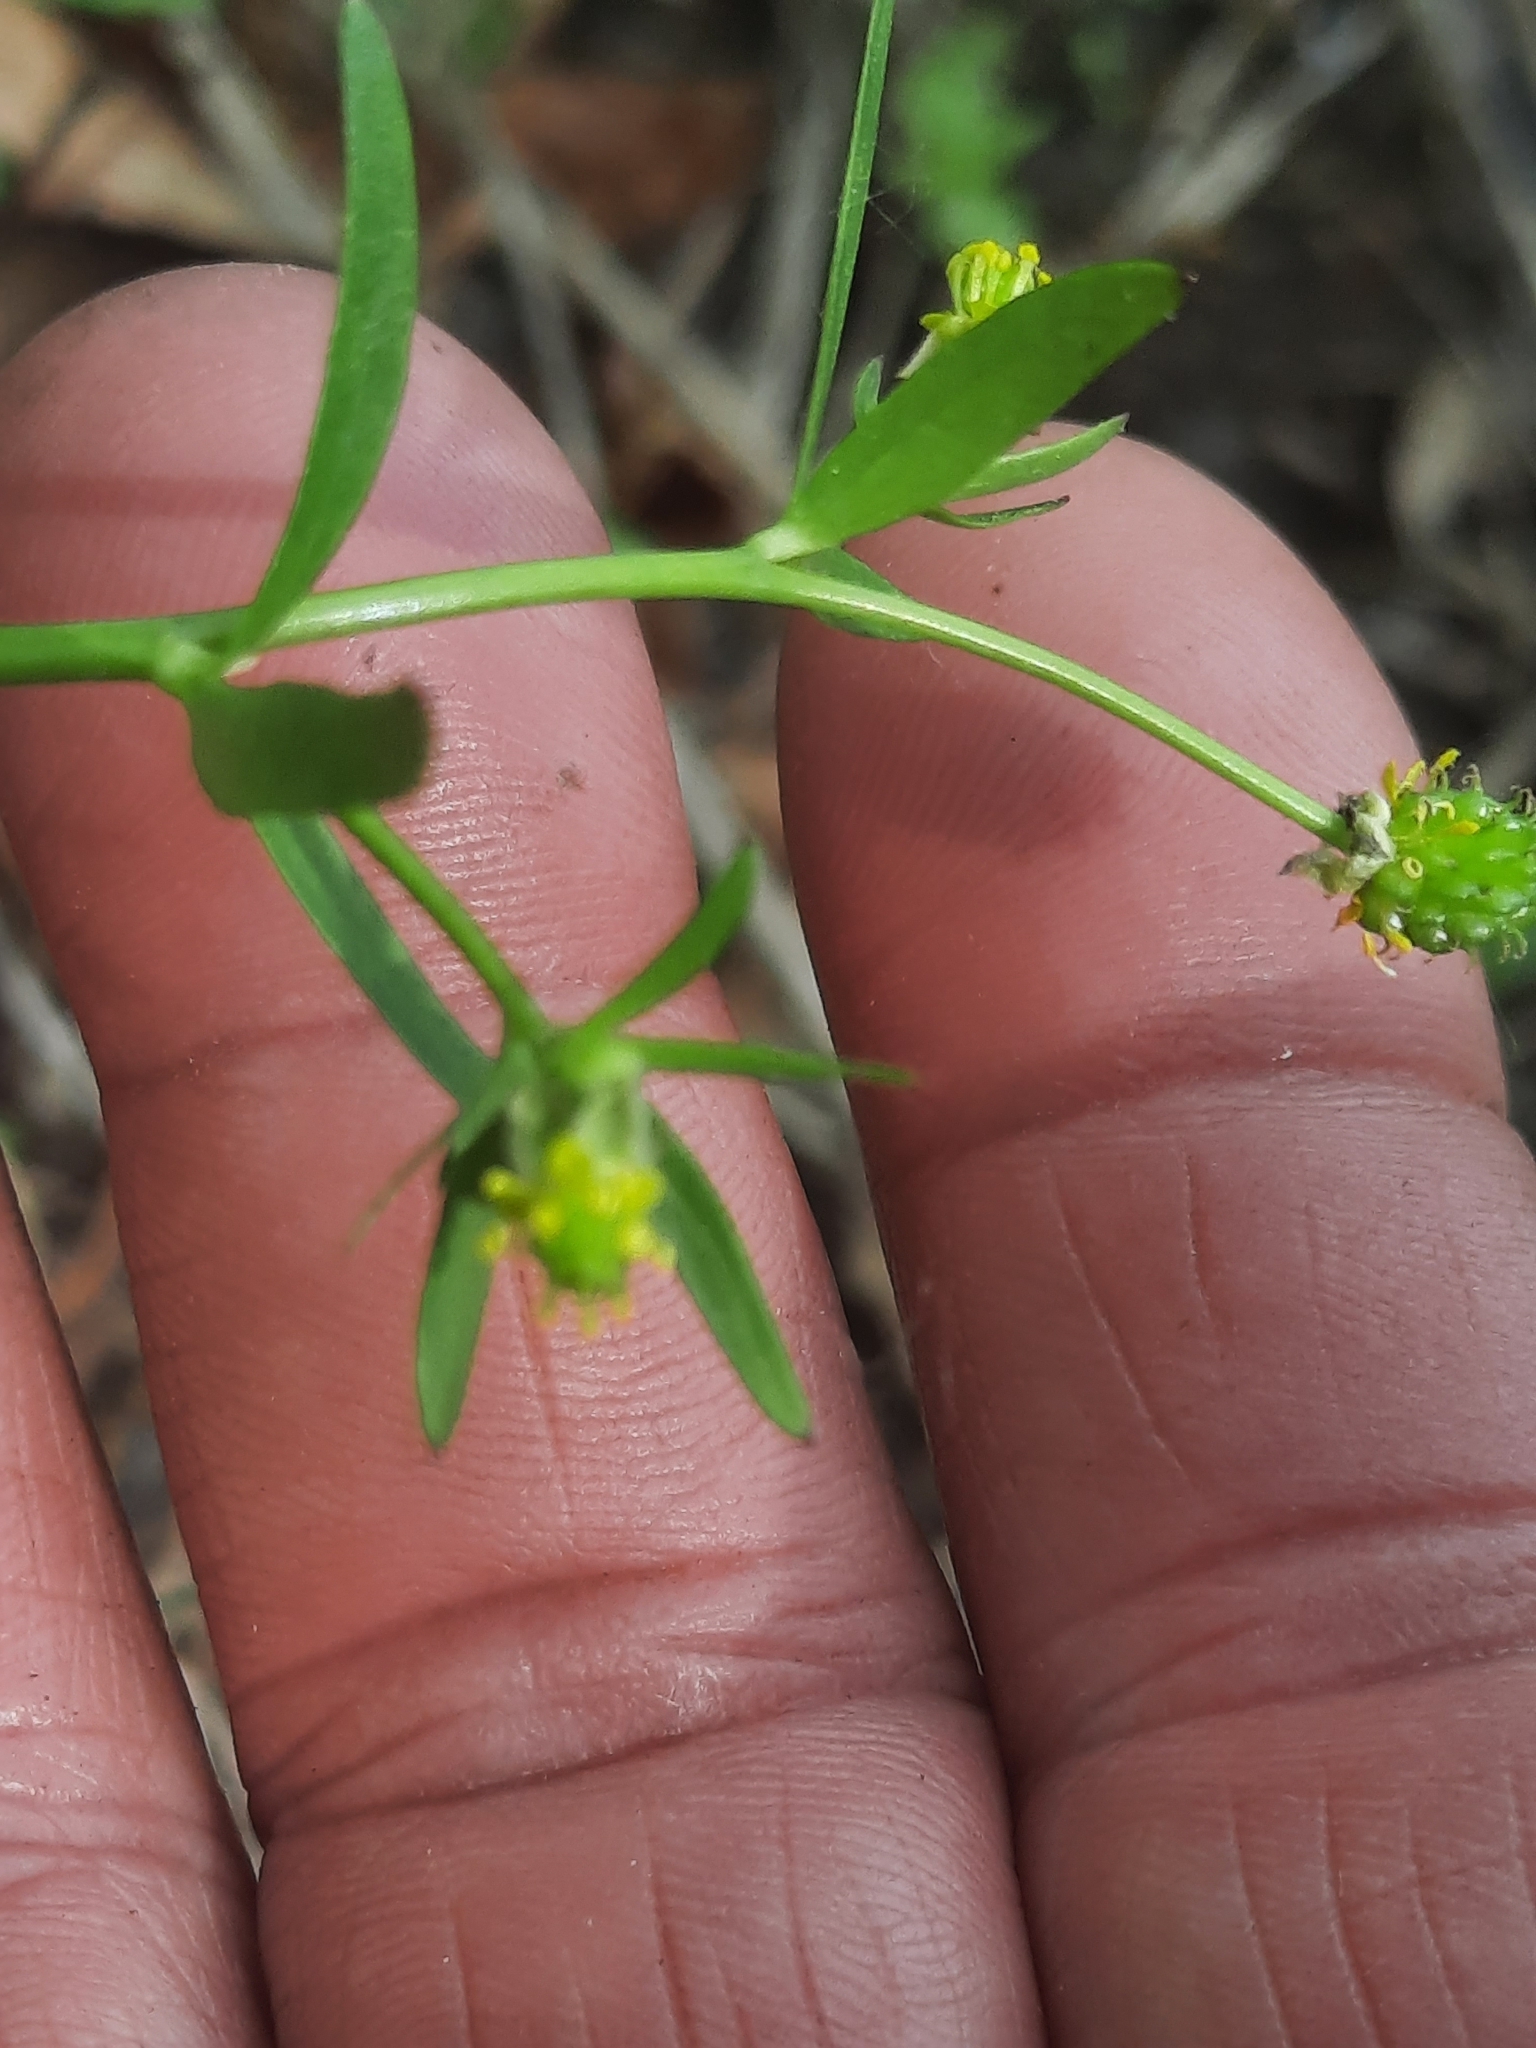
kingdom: Plantae
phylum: Tracheophyta
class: Magnoliopsida
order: Ranunculales
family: Ranunculaceae
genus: Ranunculus
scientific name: Ranunculus abortivus
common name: Early wood buttercup
